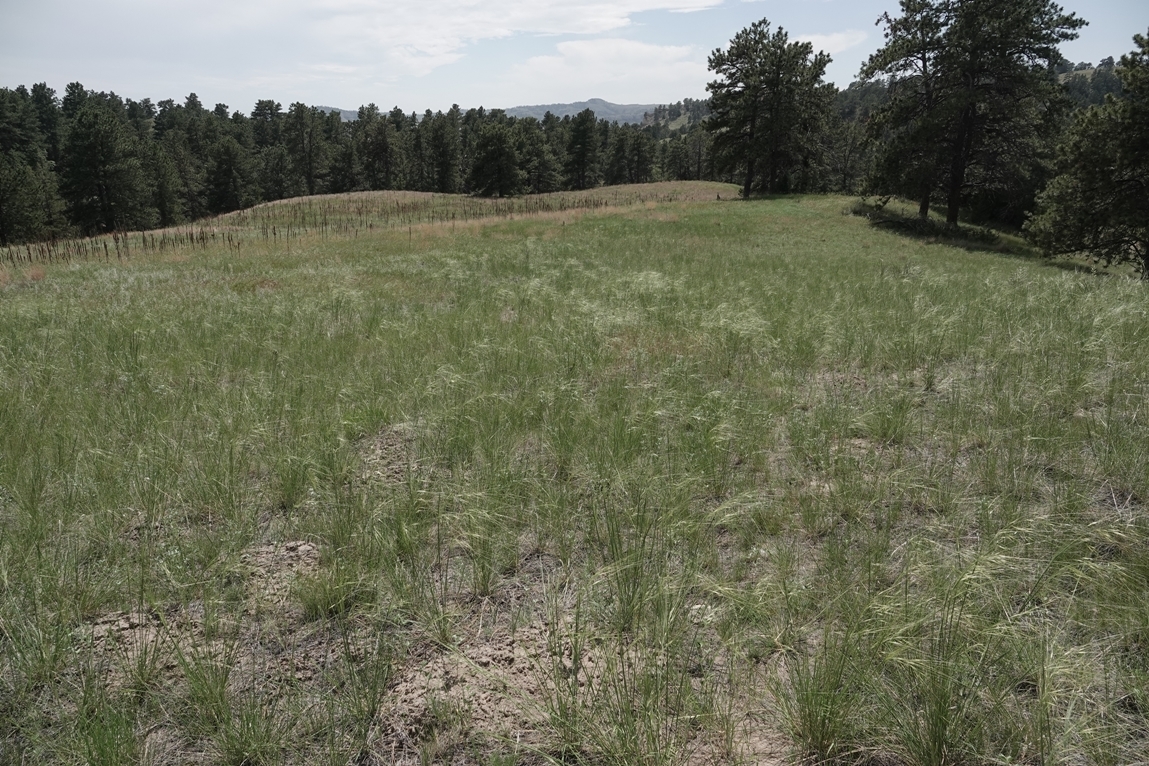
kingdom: Plantae
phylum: Tracheophyta
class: Liliopsida
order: Poales
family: Poaceae
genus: Hesperostipa
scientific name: Hesperostipa comata
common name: Needle-and-thread grass
